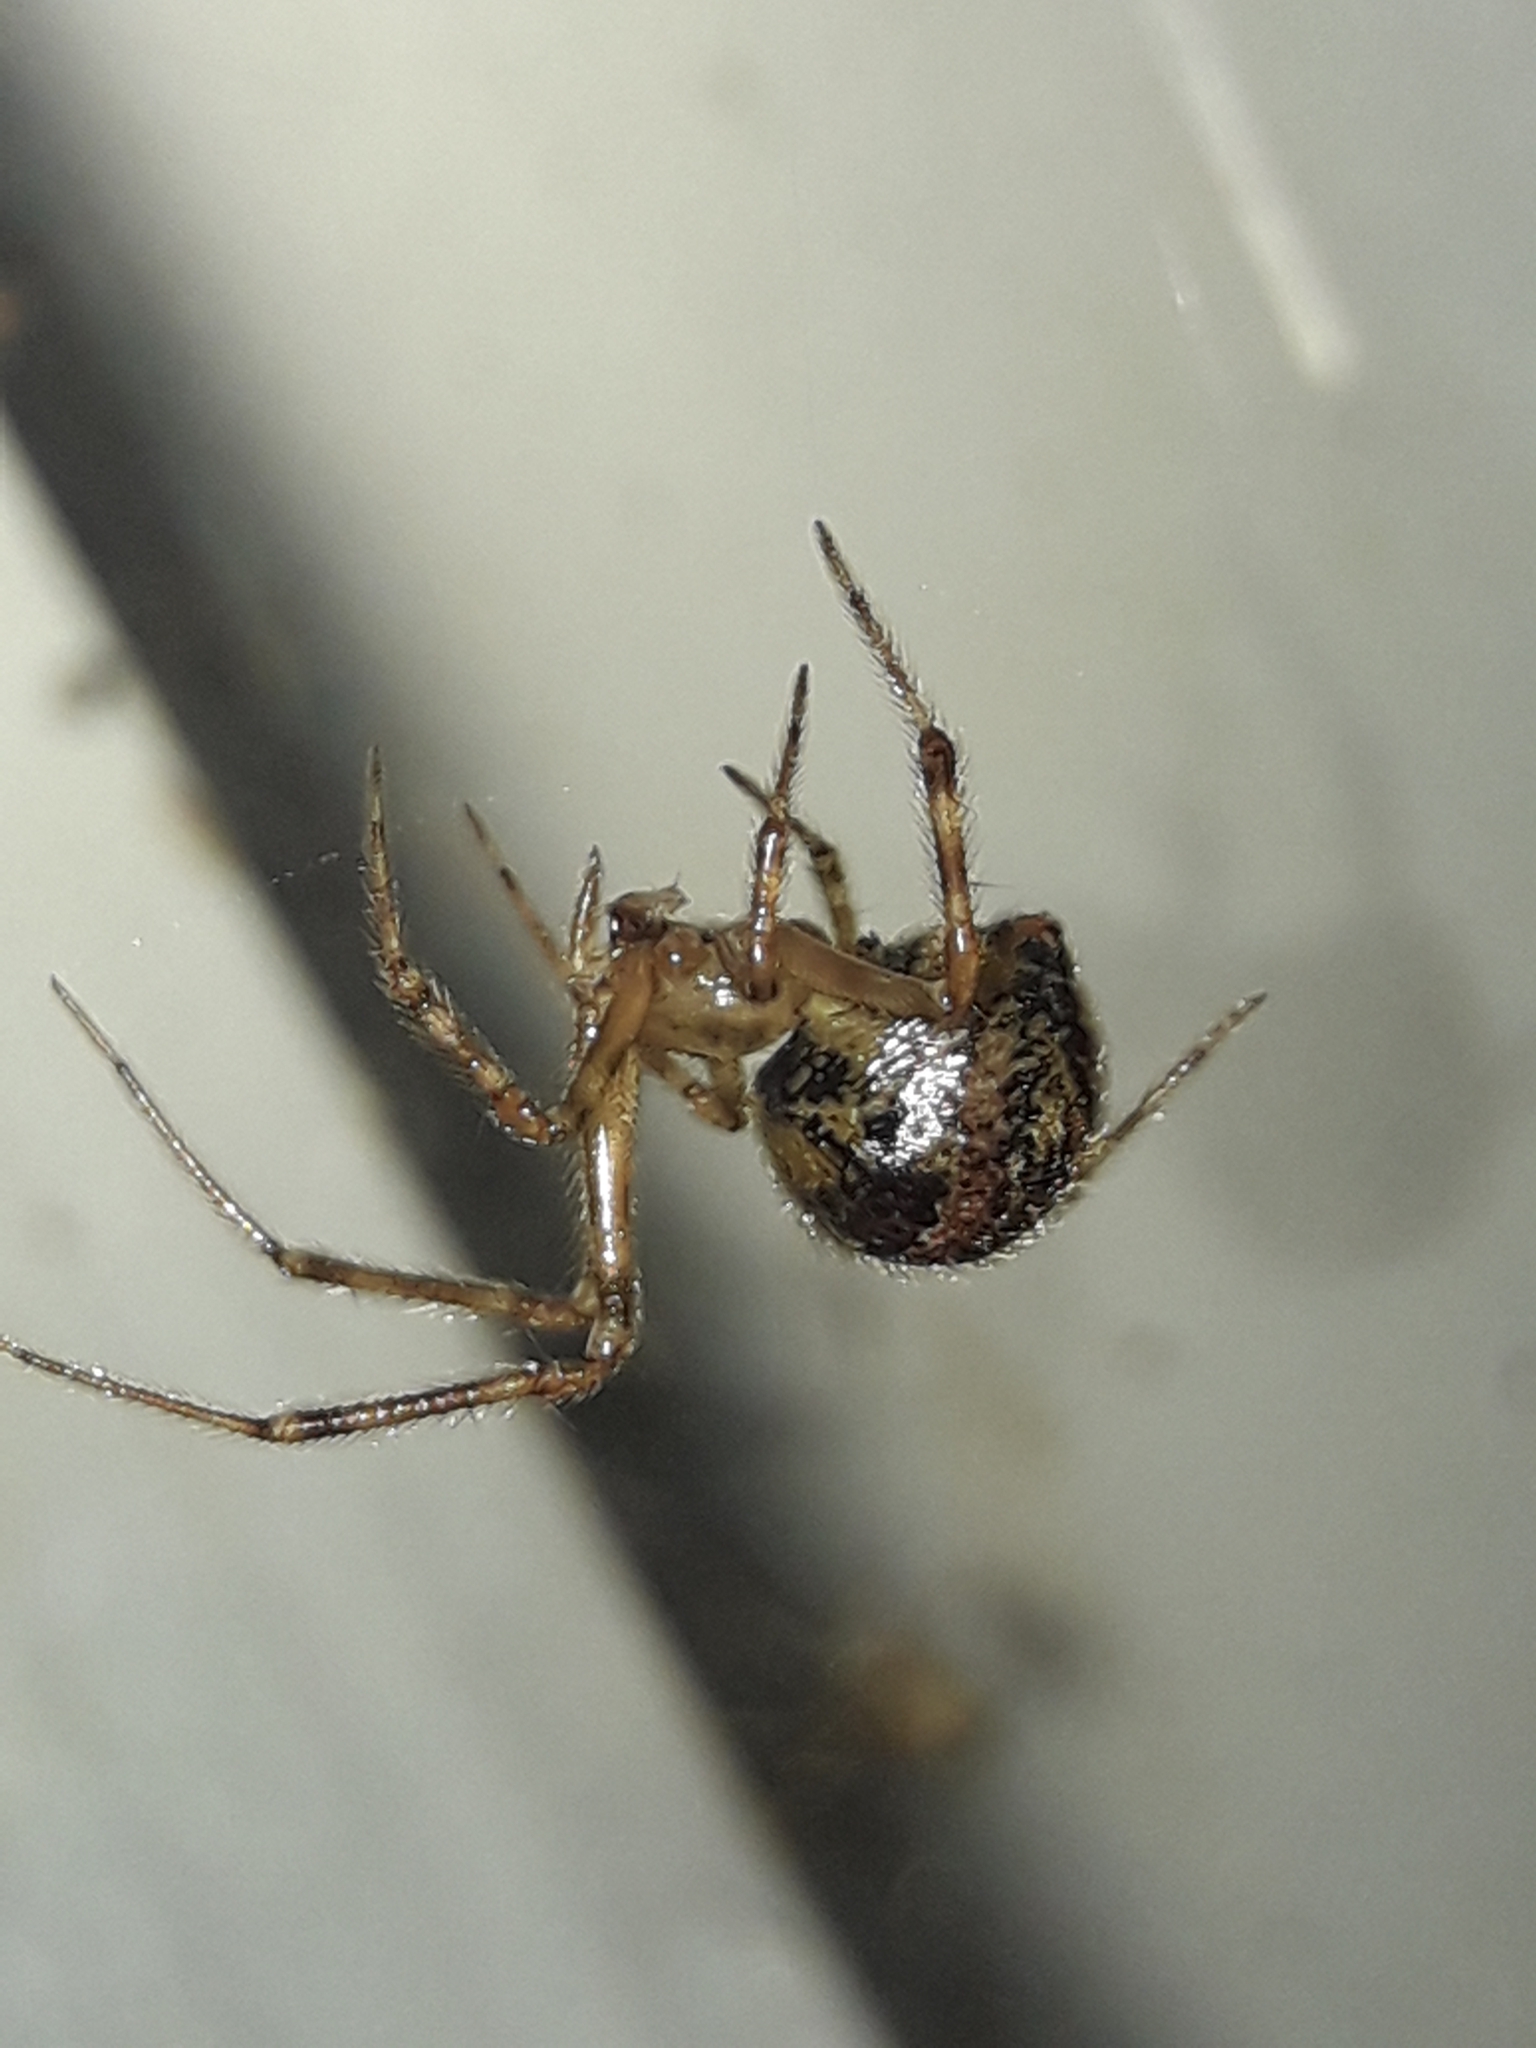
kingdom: Animalia
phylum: Arthropoda
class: Arachnida
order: Araneae
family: Theridiidae
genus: Cryptachaea
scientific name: Cryptachaea veruculata
